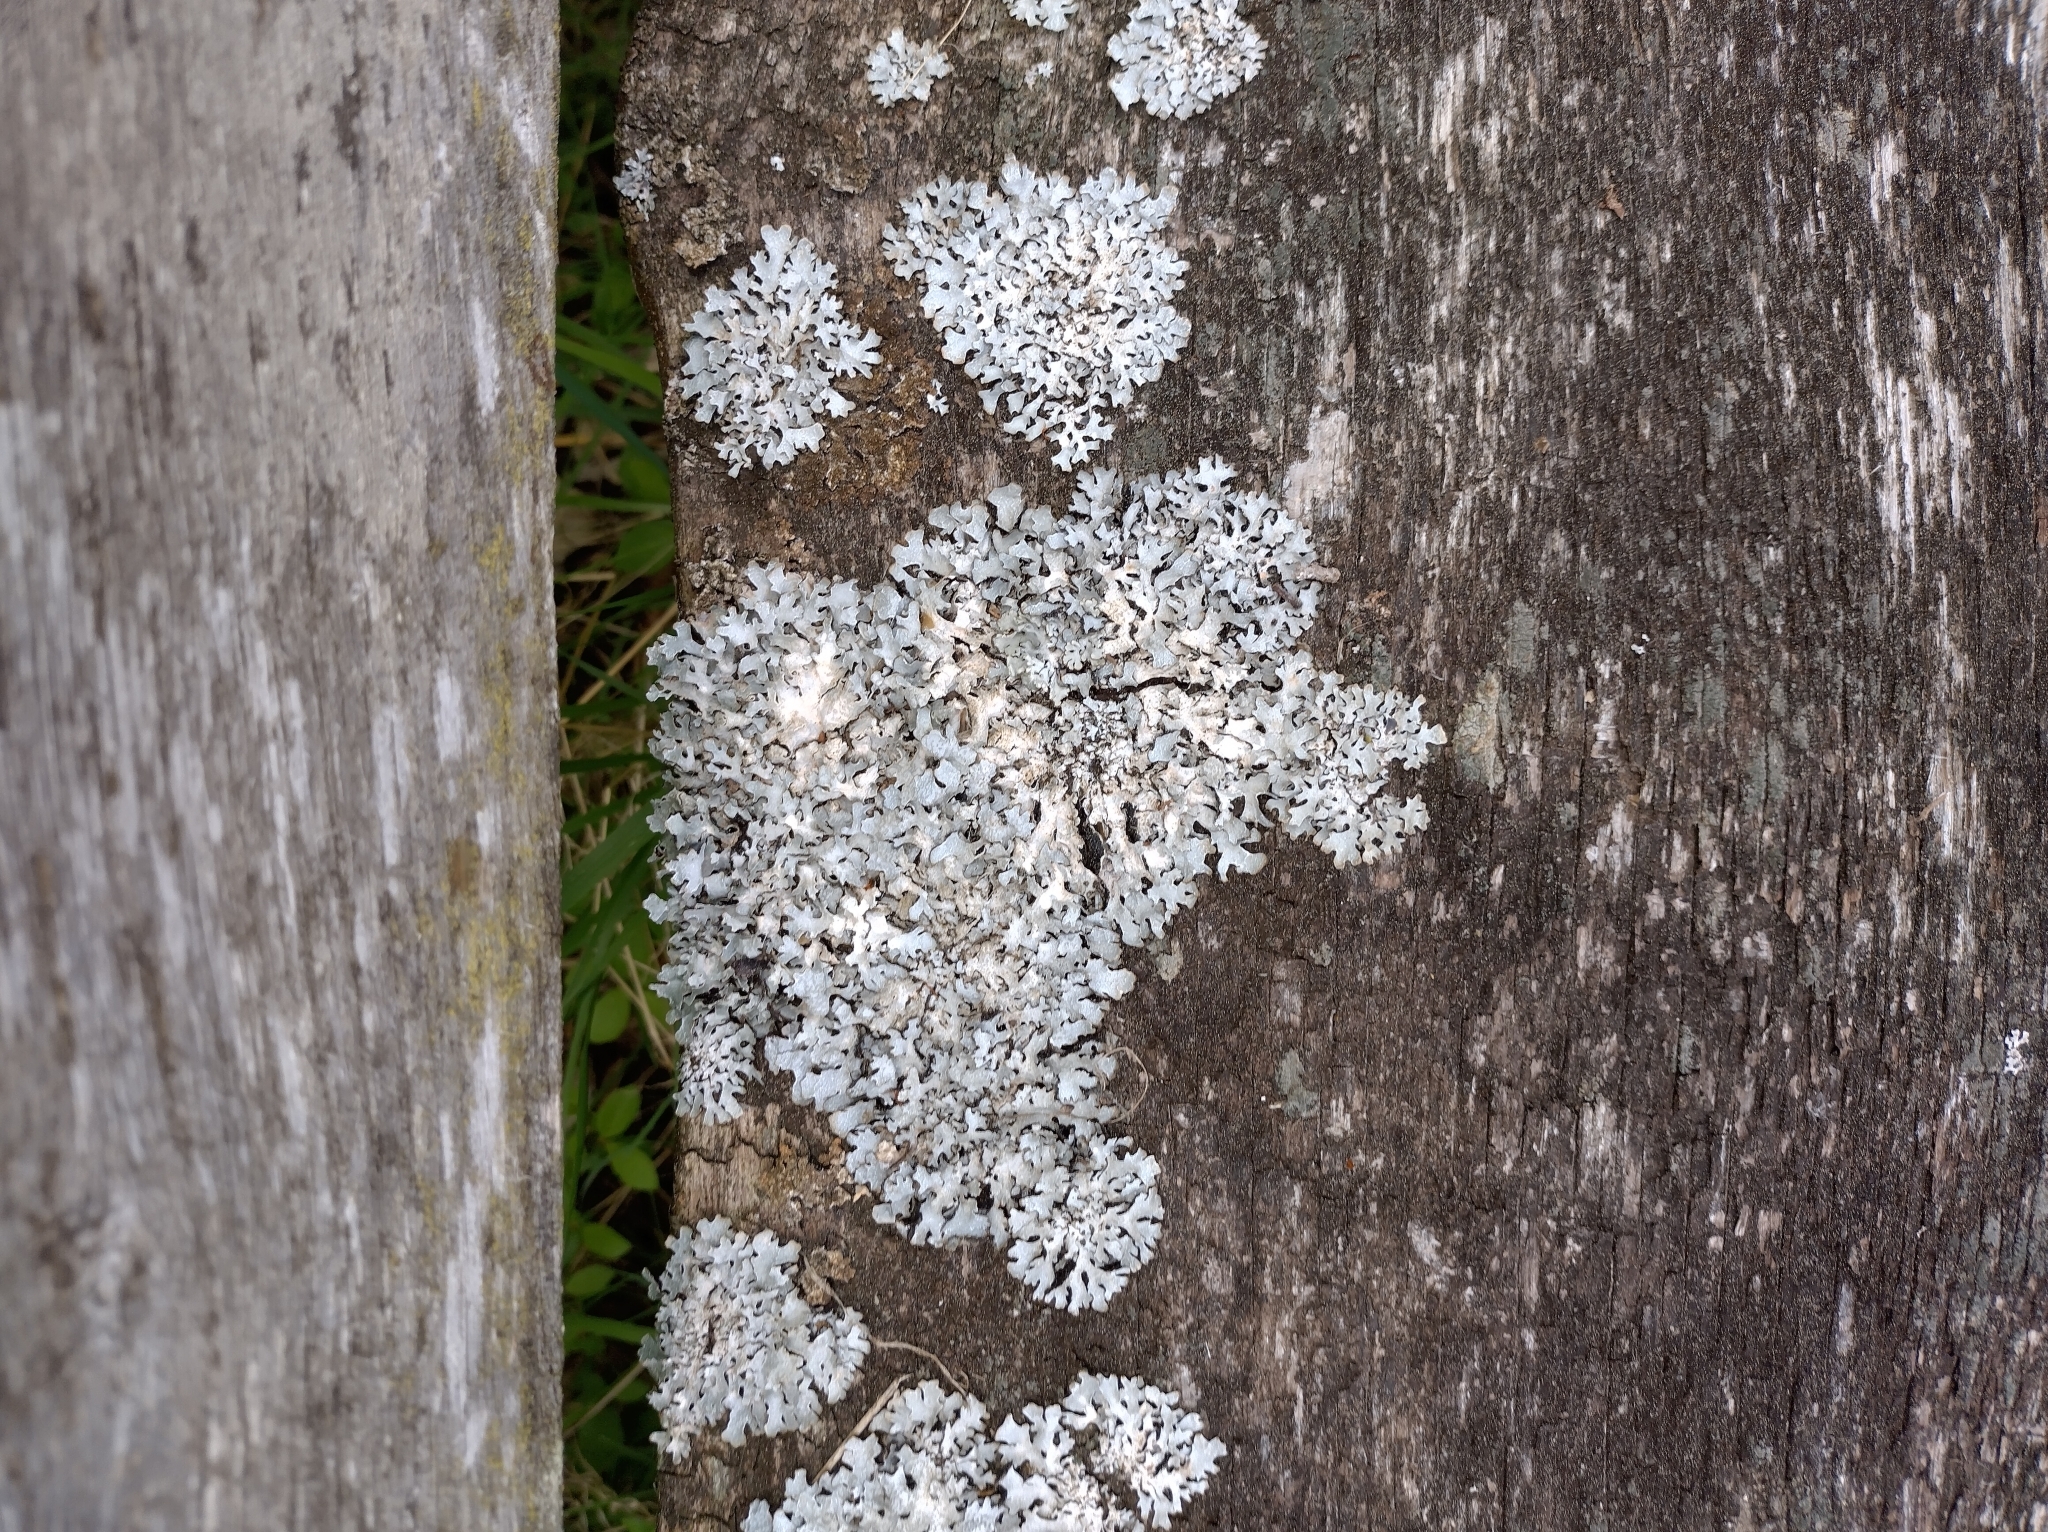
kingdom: Fungi
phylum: Ascomycota
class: Lecanoromycetes
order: Lecanorales
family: Parmeliaceae
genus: Parmelia
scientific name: Parmelia sulcata
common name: Netted shield lichen
